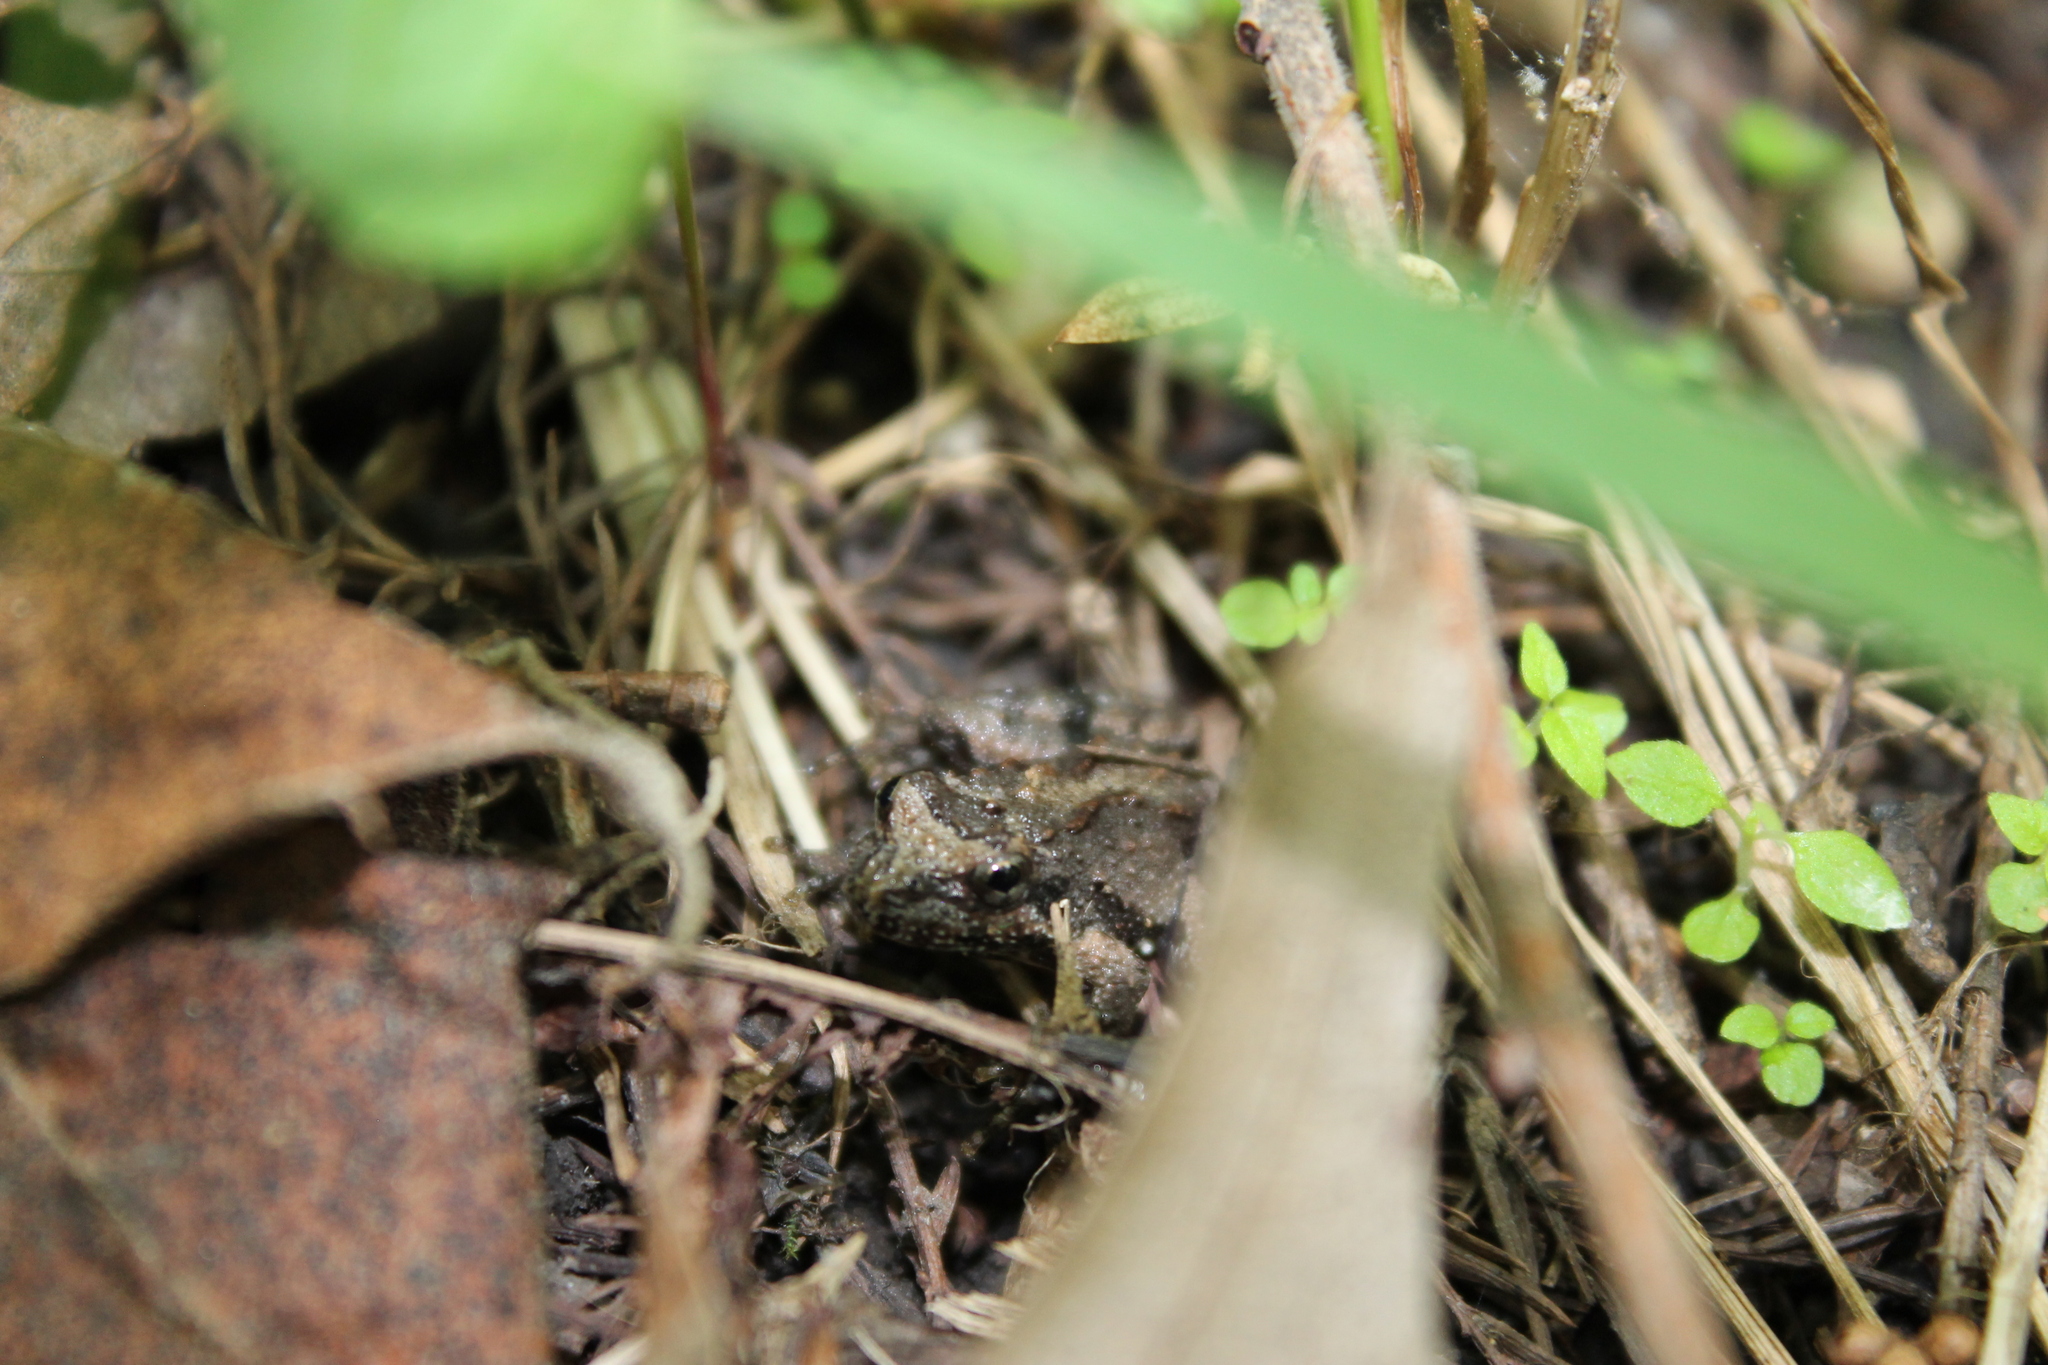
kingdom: Animalia
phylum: Chordata
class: Amphibia
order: Anura
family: Hylidae
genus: Acris
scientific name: Acris crepitans
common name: Northern cricket frog
